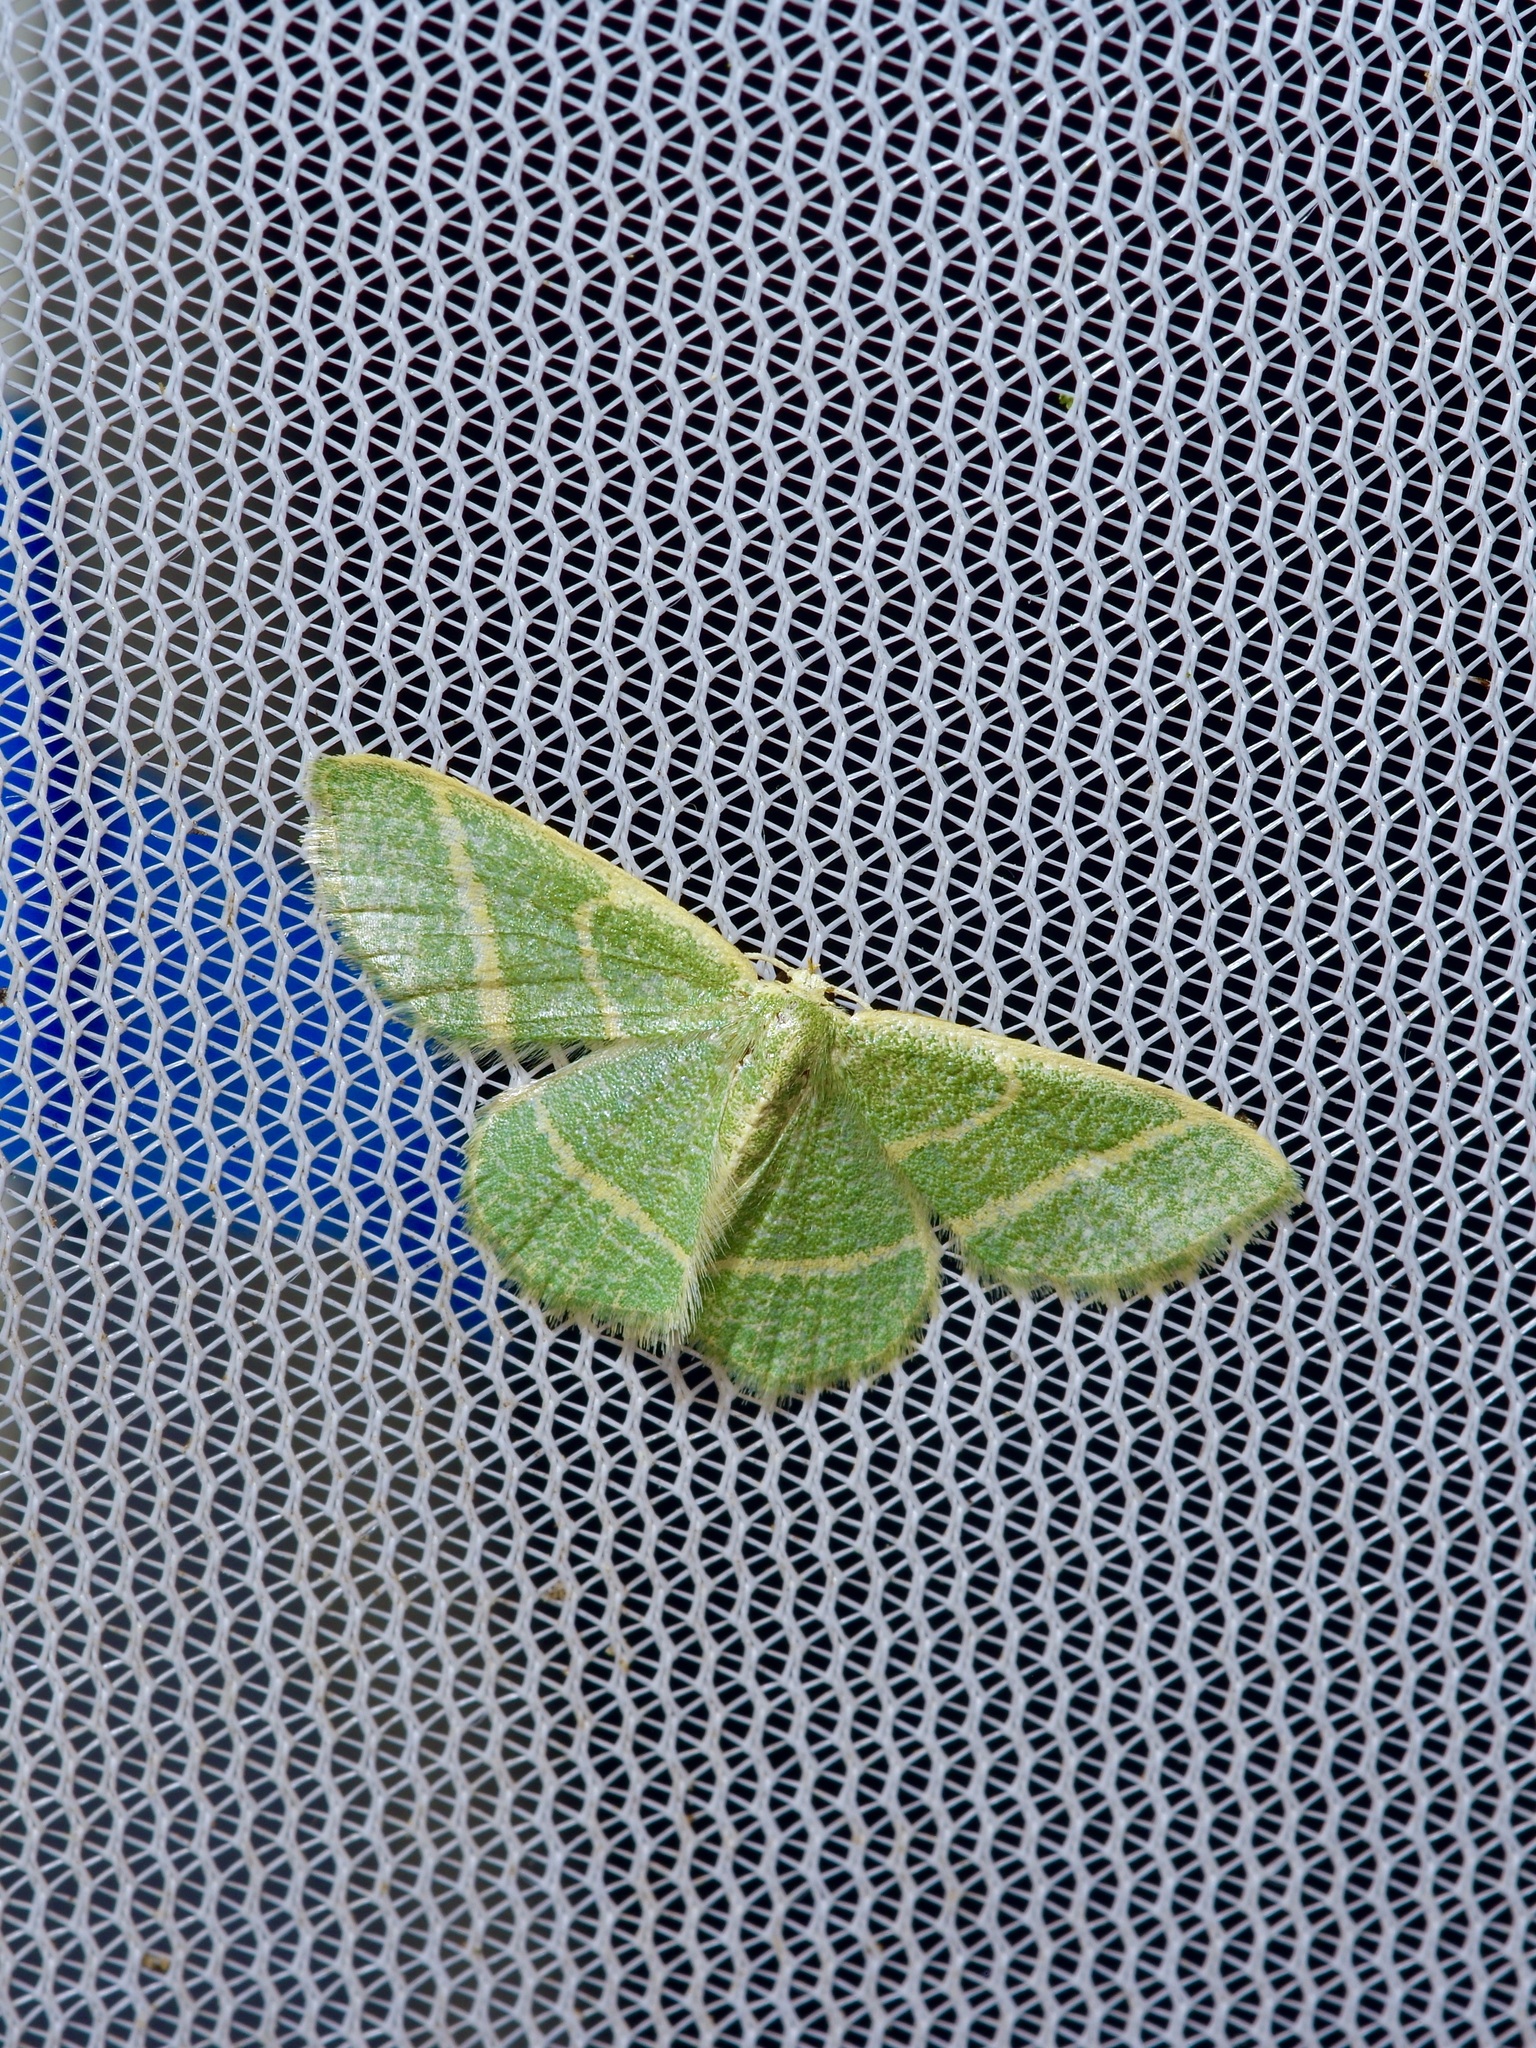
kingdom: Animalia
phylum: Arthropoda
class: Insecta
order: Lepidoptera
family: Geometridae
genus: Chlorochlamys
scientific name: Chlorochlamys chloroleucaria
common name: Blackberry looper
